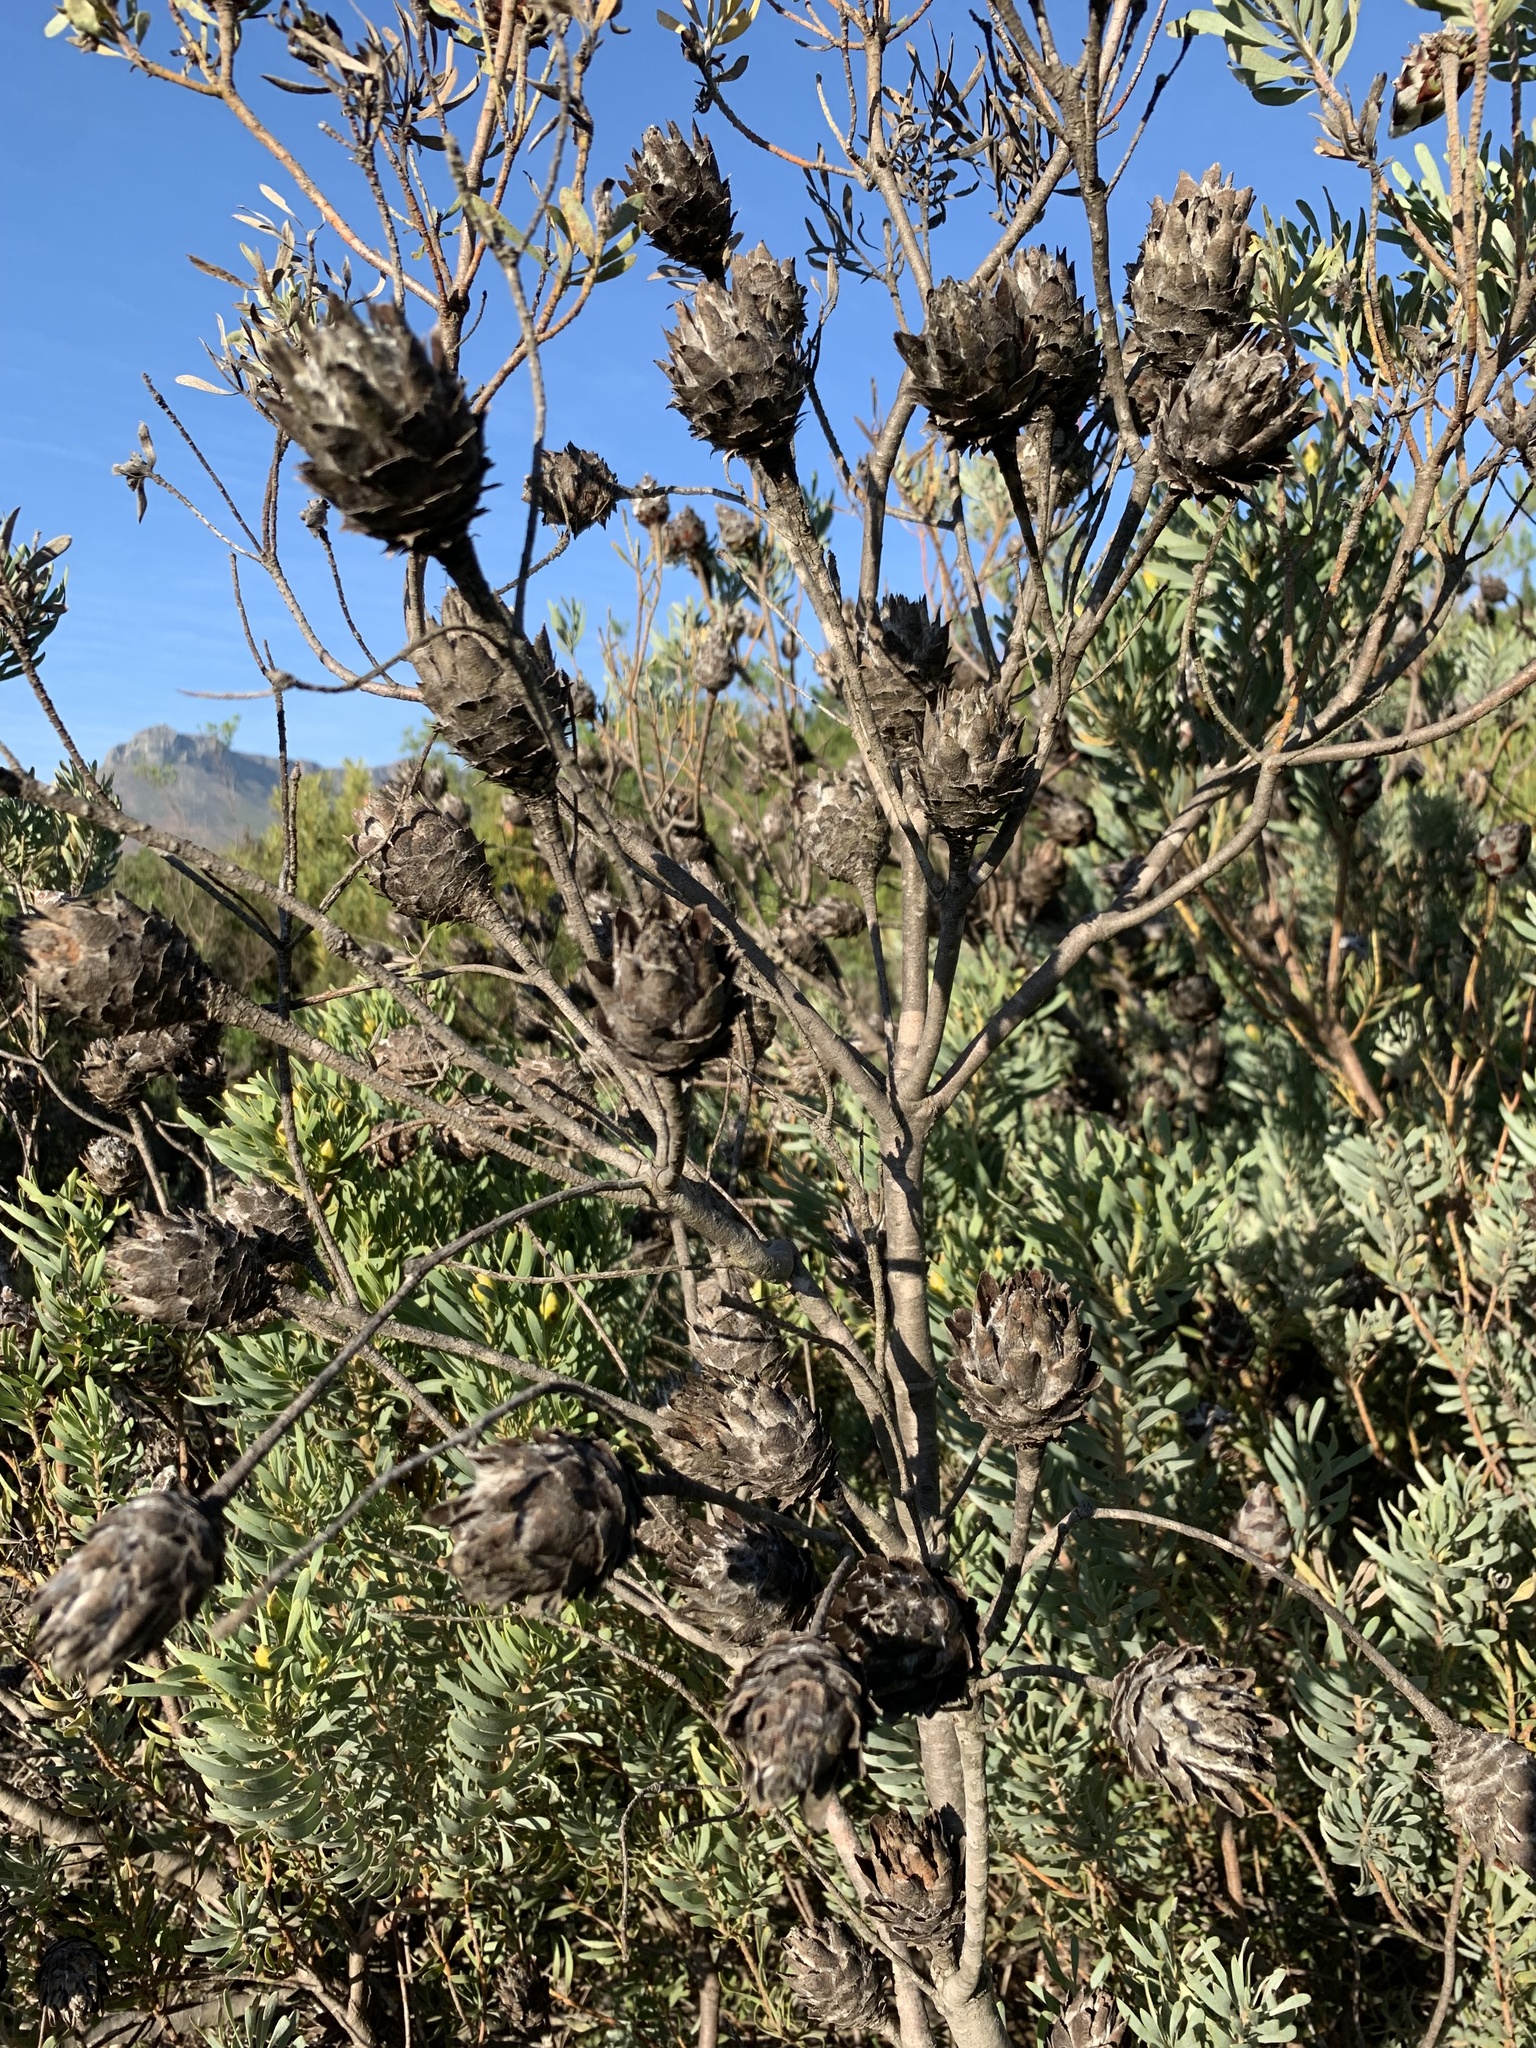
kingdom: Plantae
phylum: Tracheophyta
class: Magnoliopsida
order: Proteales
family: Proteaceae
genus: Leucadendron
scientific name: Leucadendron rubrum
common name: Spinning top
